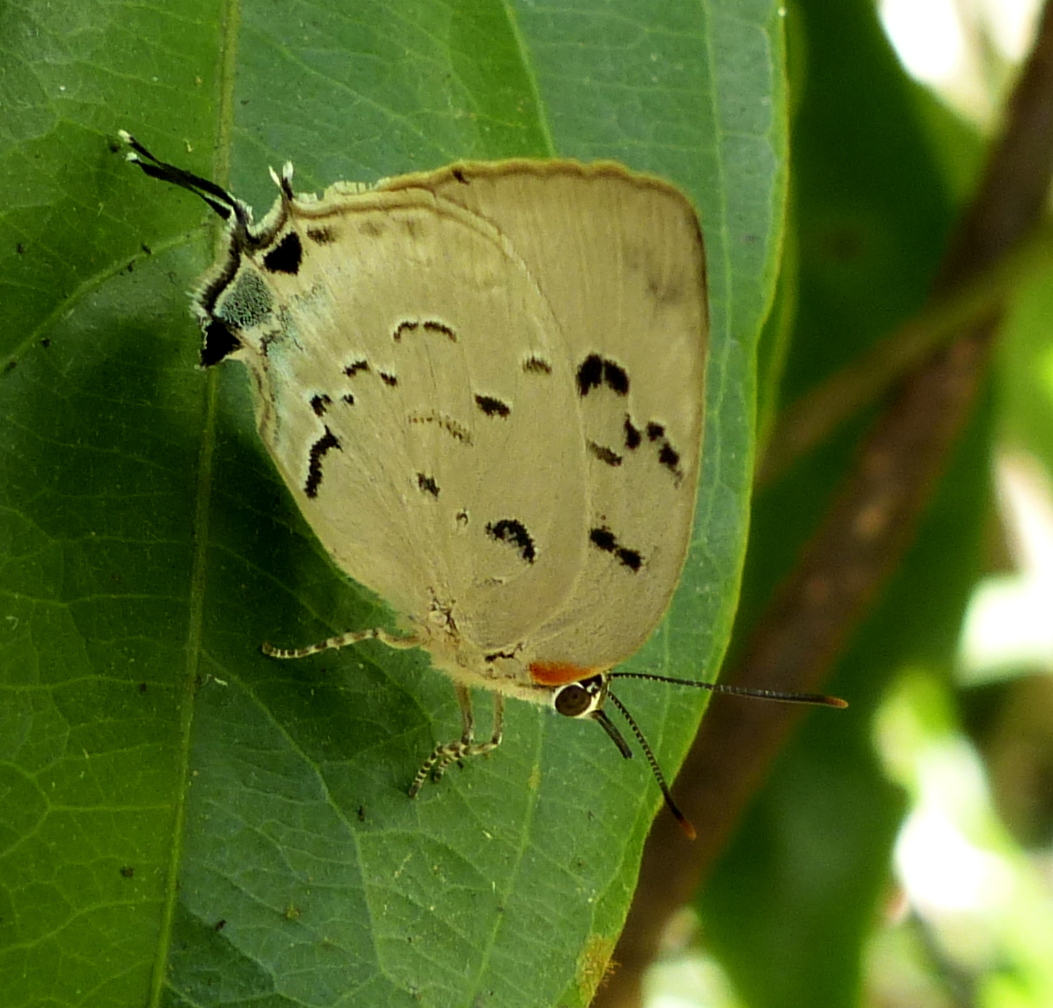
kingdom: Animalia
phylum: Arthropoda
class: Insecta
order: Lepidoptera
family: Lycaenidae
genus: Panthiades
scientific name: Panthiades hebraeus
